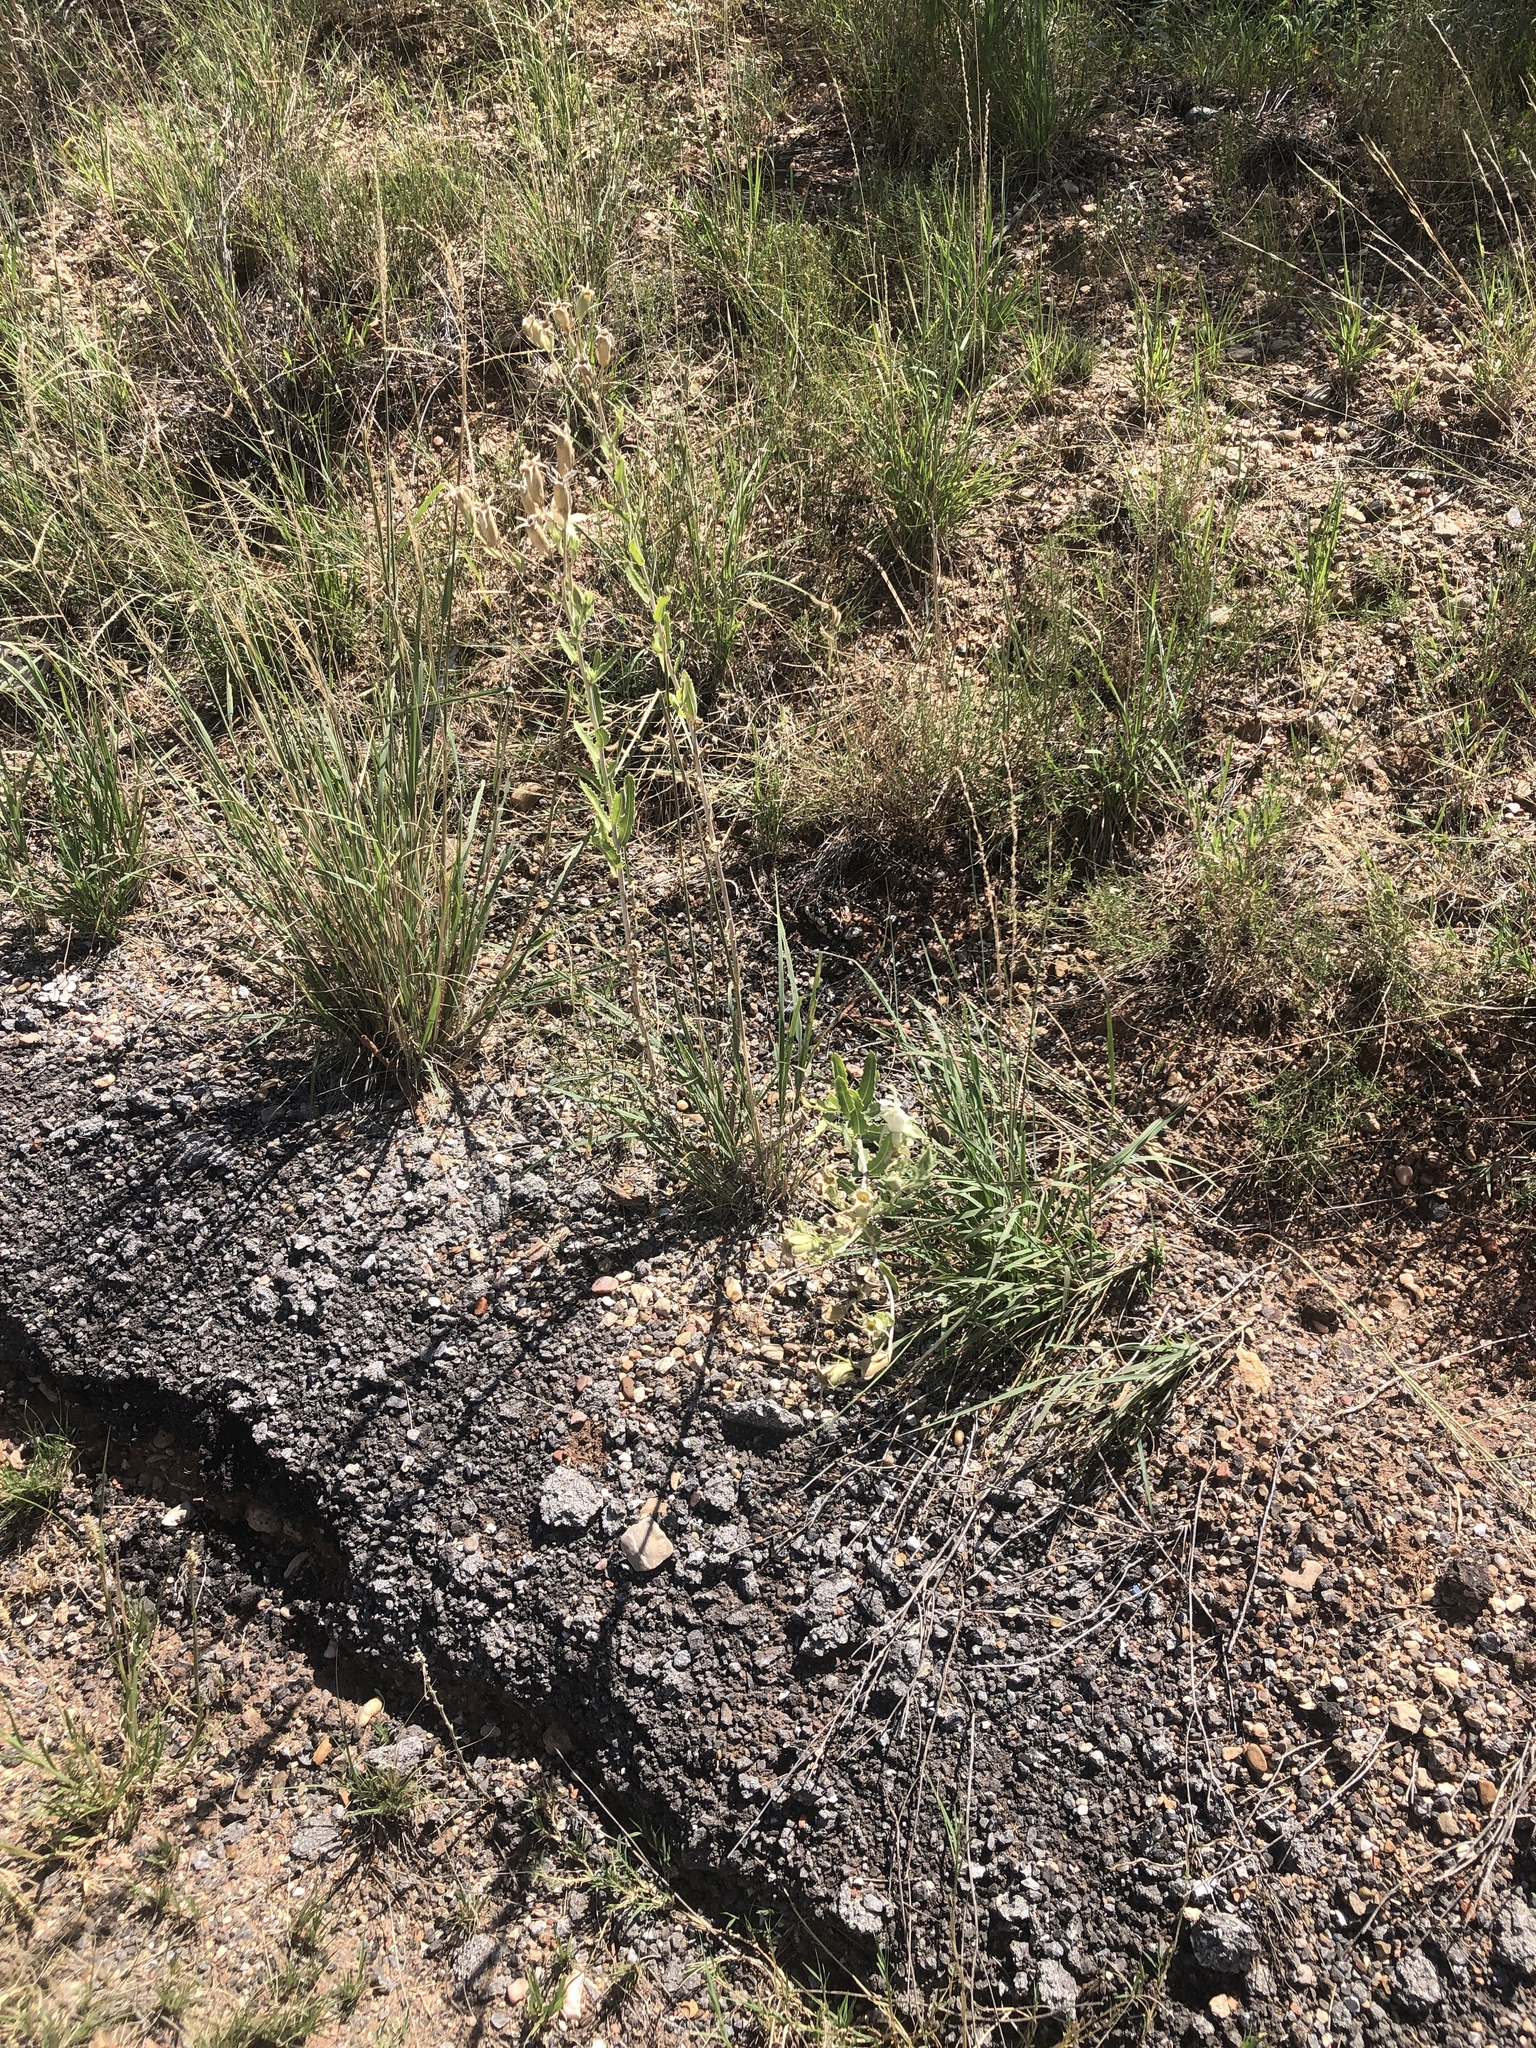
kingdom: Plantae
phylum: Tracheophyta
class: Magnoliopsida
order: Cornales
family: Loasaceae
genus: Mentzelia
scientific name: Mentzelia nuda
